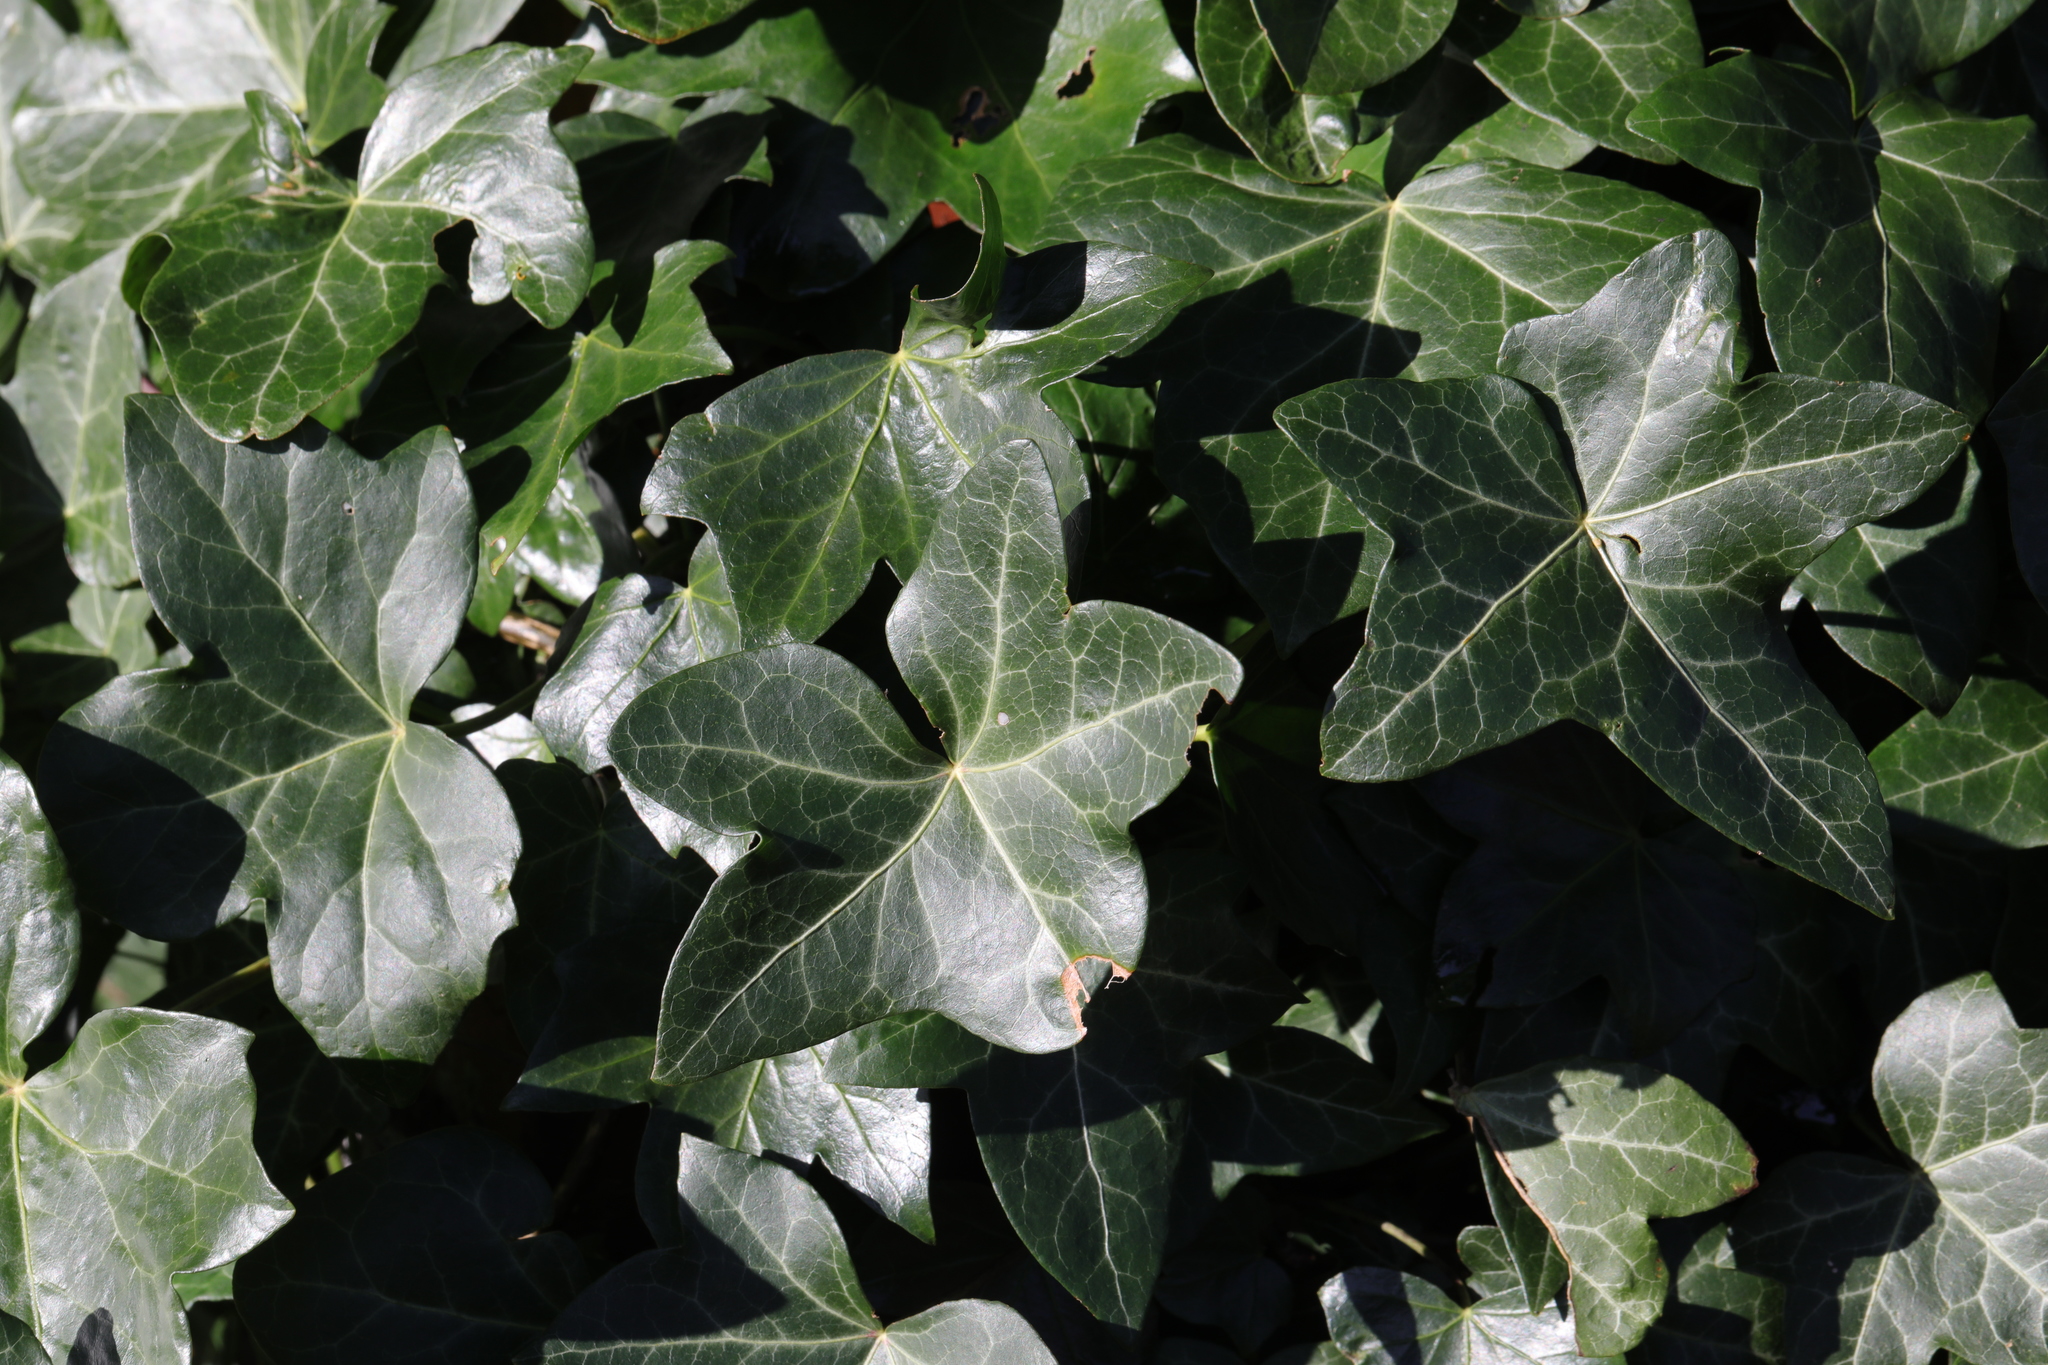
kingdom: Plantae
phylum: Tracheophyta
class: Magnoliopsida
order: Apiales
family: Araliaceae
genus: Hedera
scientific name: Hedera helix
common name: Ivy
